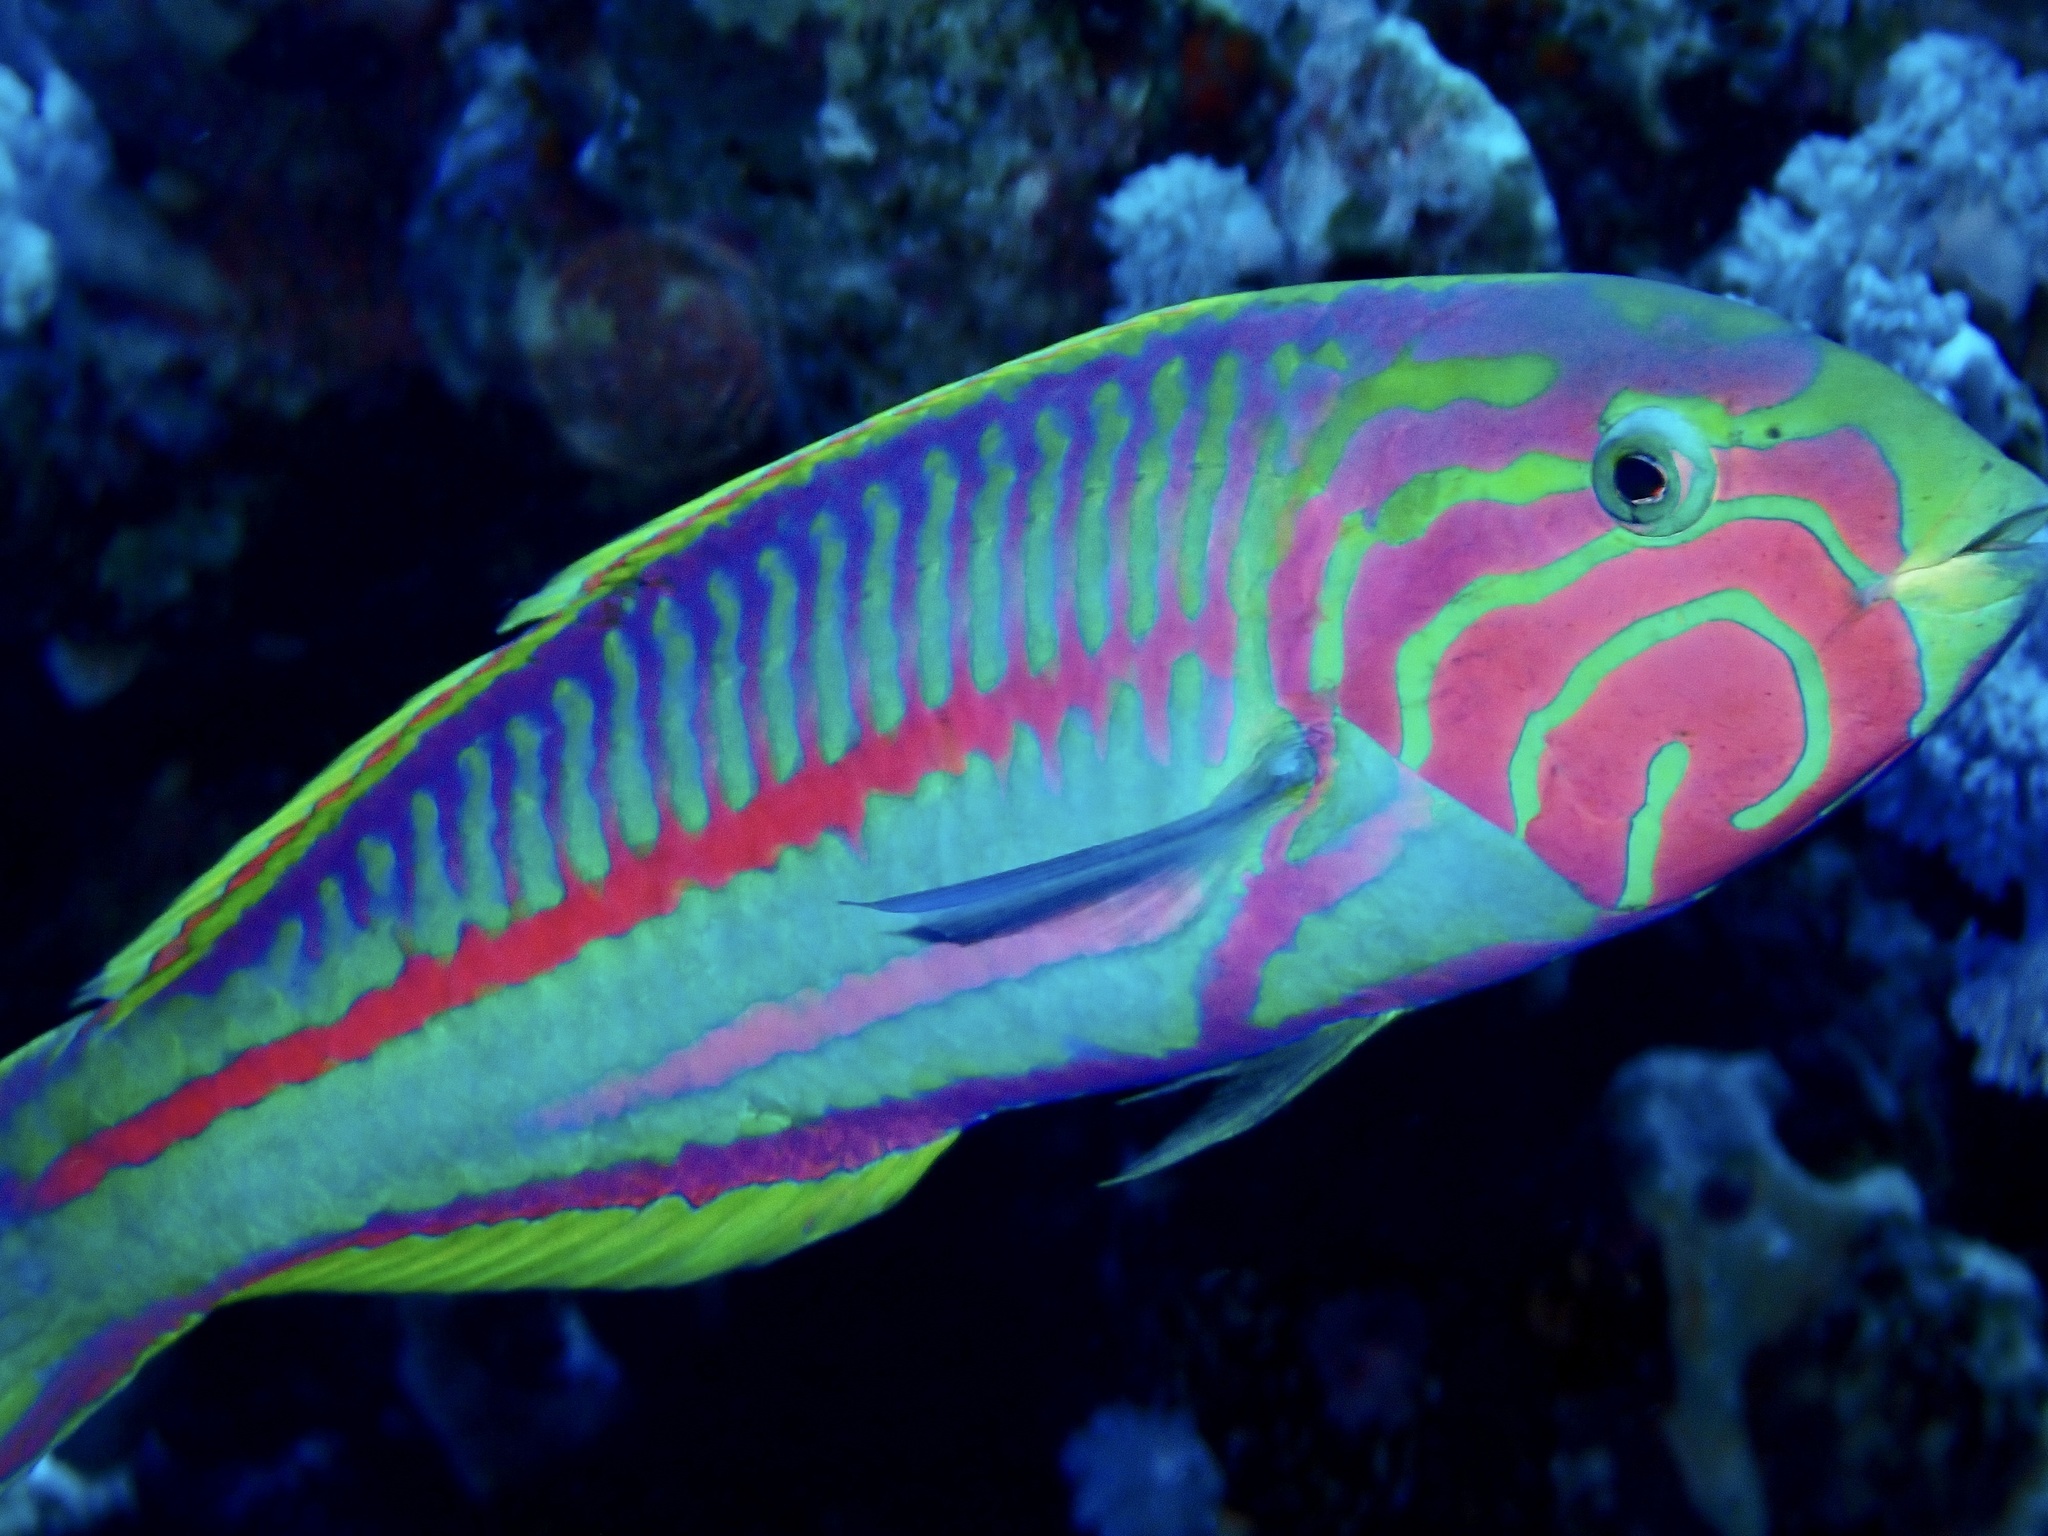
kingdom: Animalia
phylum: Chordata
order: Perciformes
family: Labridae
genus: Thalassoma
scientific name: Thalassoma rueppellii
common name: Klunzinger's wrasse
